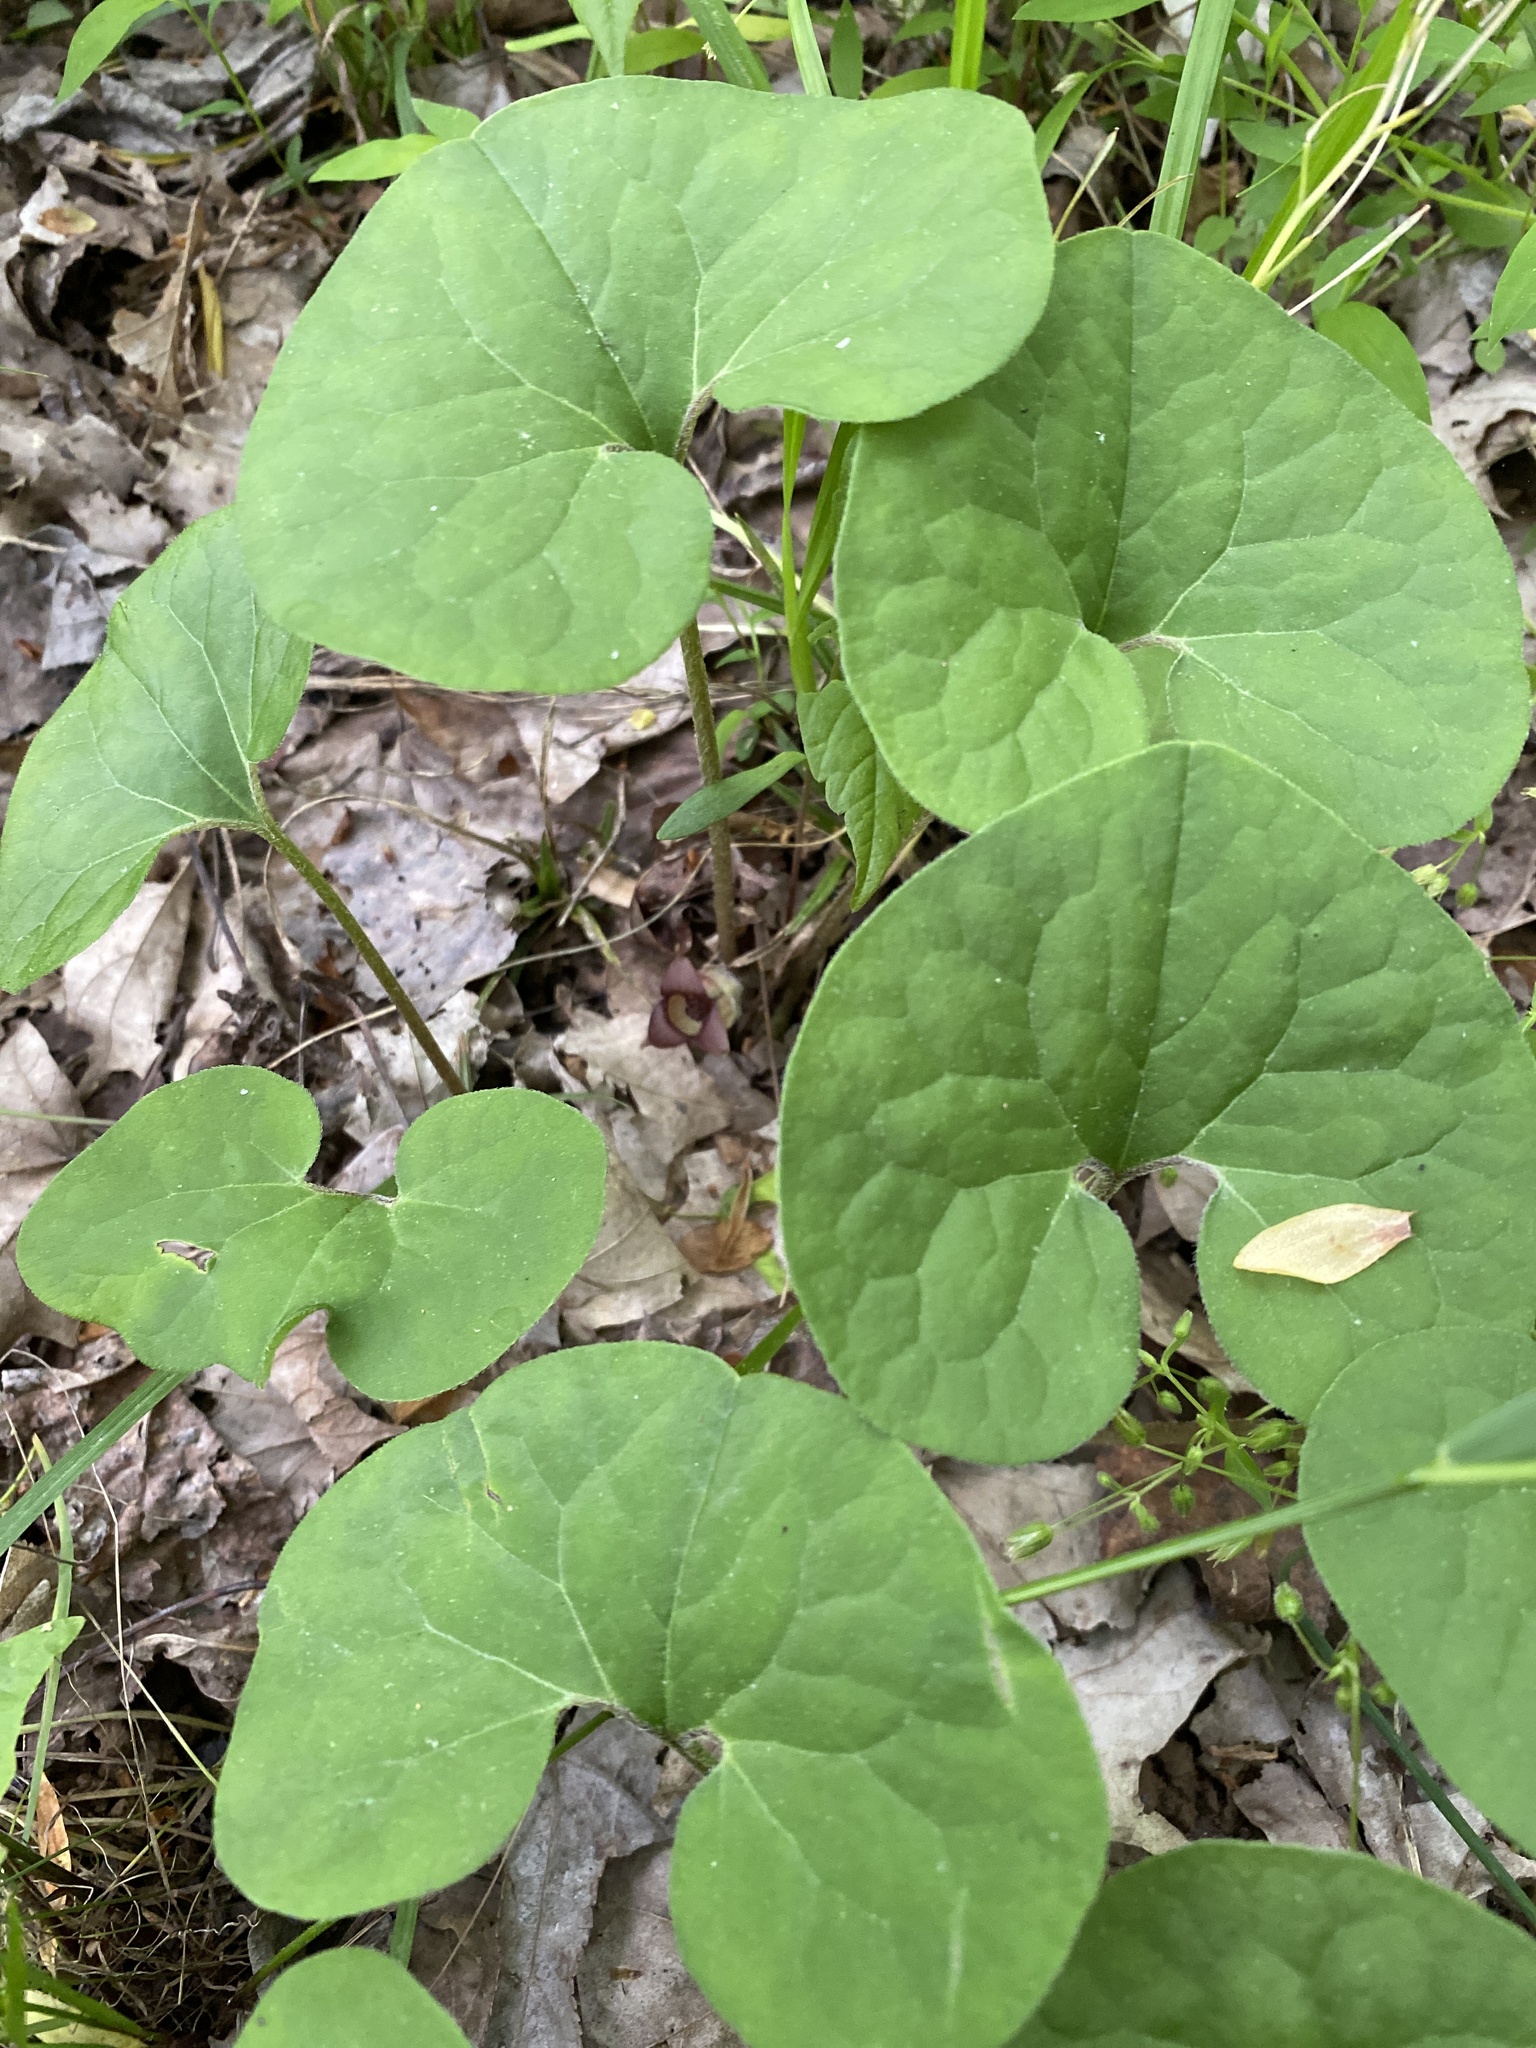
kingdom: Plantae
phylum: Tracheophyta
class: Magnoliopsida
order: Piperales
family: Aristolochiaceae
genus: Asarum
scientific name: Asarum canadense
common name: Wild ginger
